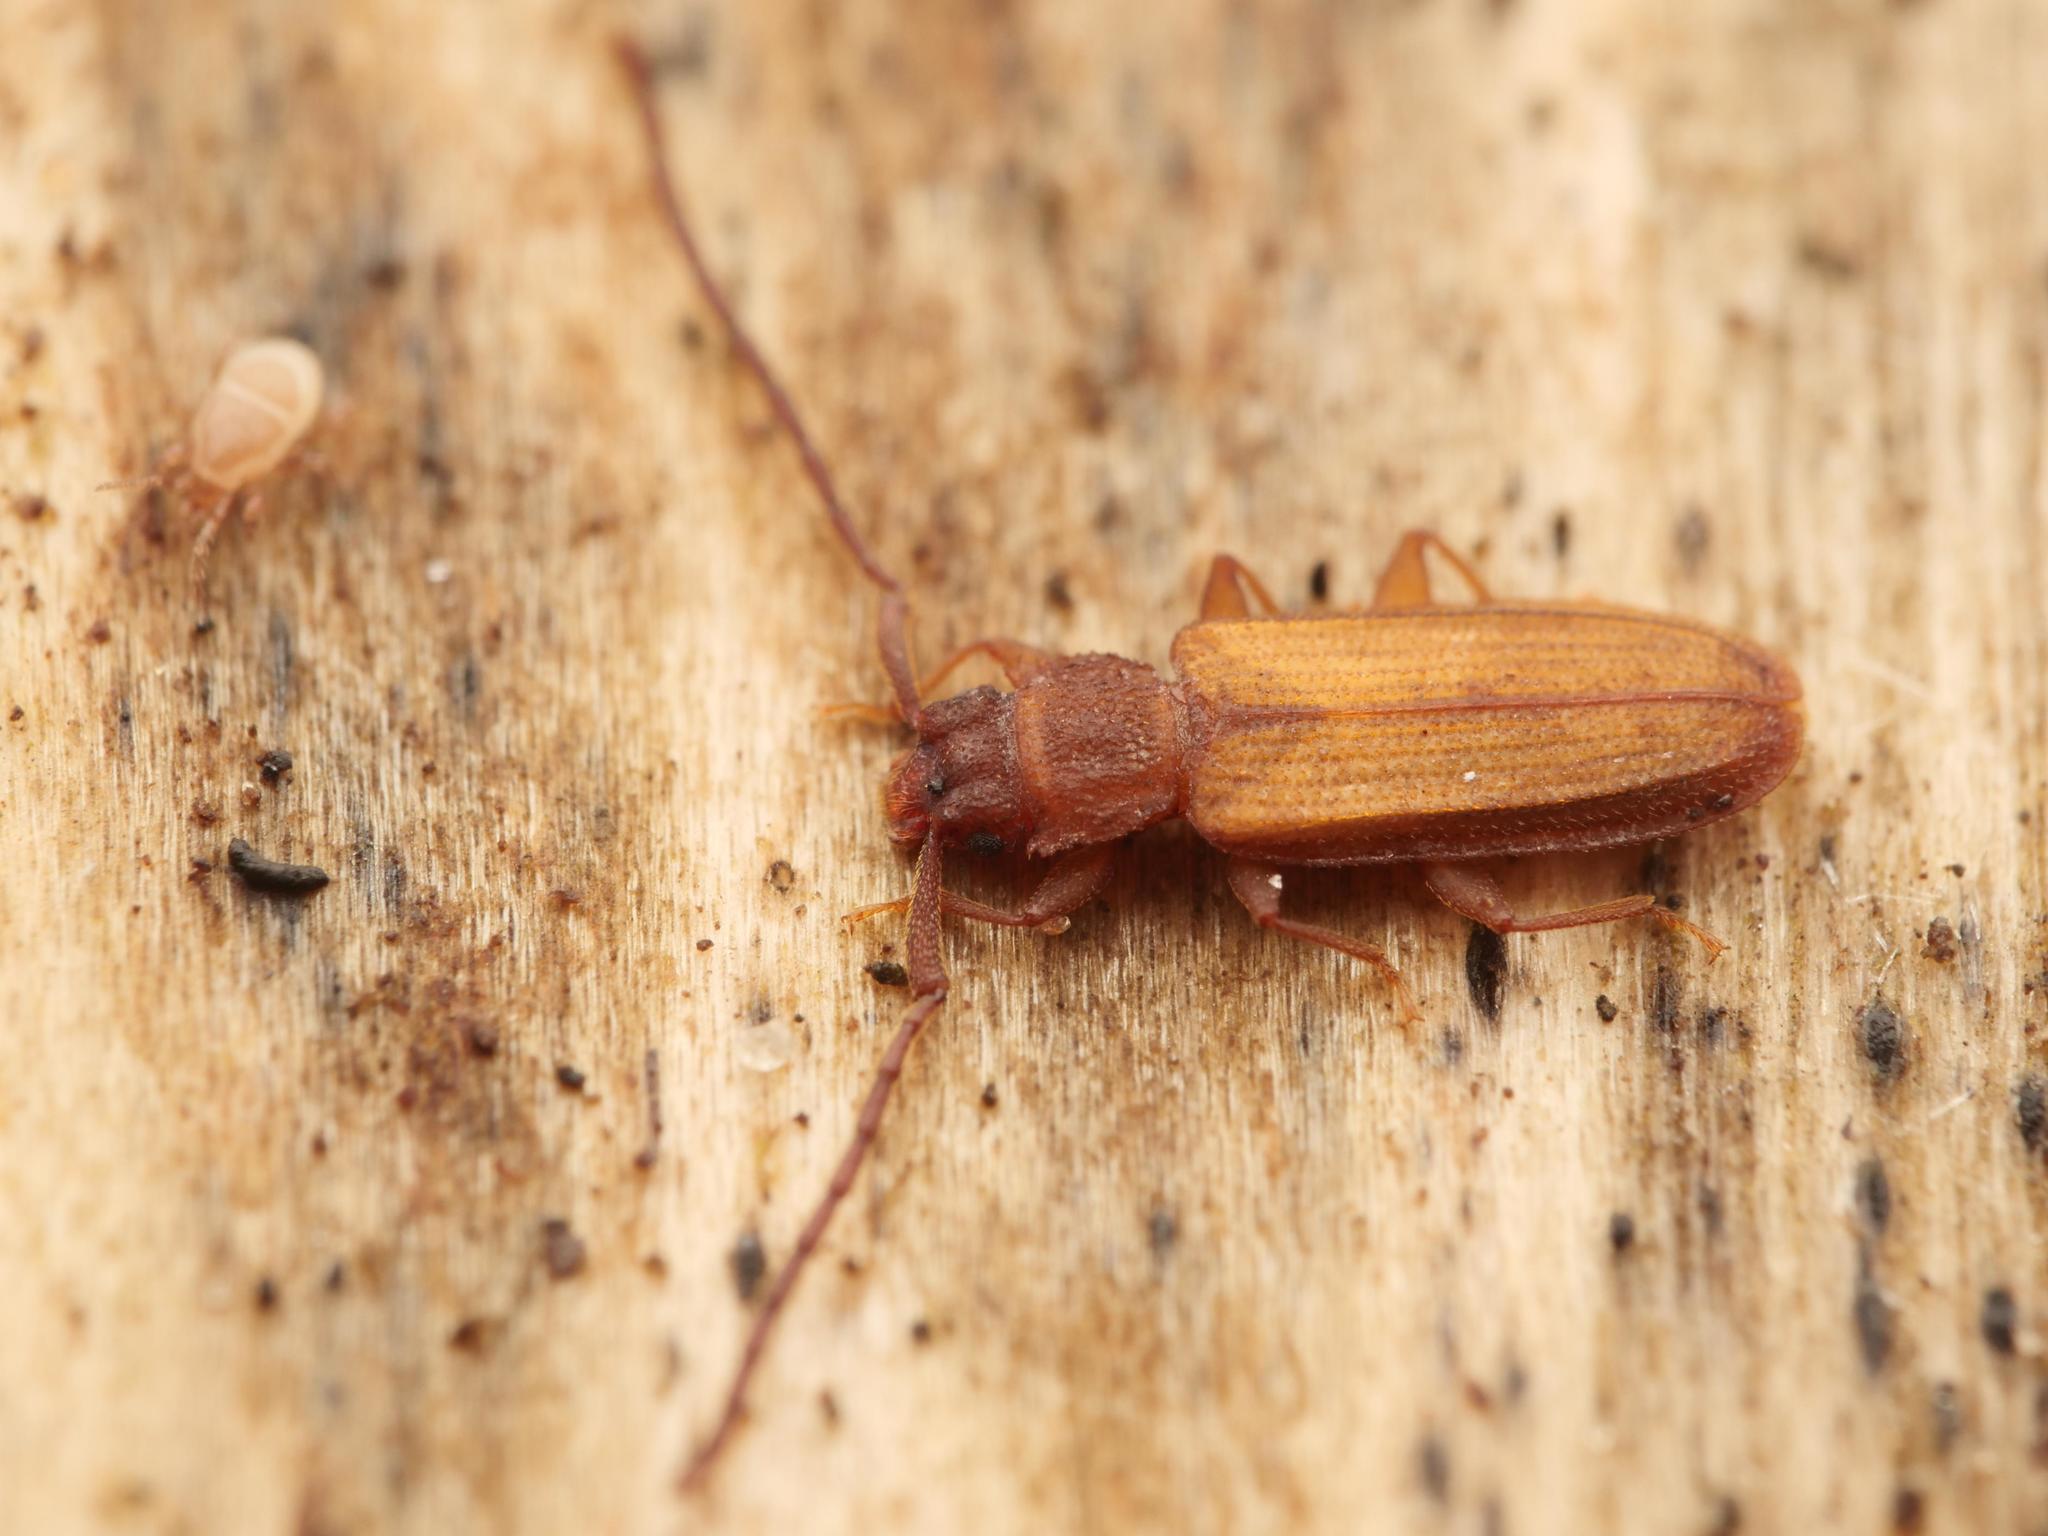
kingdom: Animalia
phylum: Arthropoda
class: Insecta
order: Coleoptera
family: Silvanidae
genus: Uleiota
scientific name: Uleiota planatus
